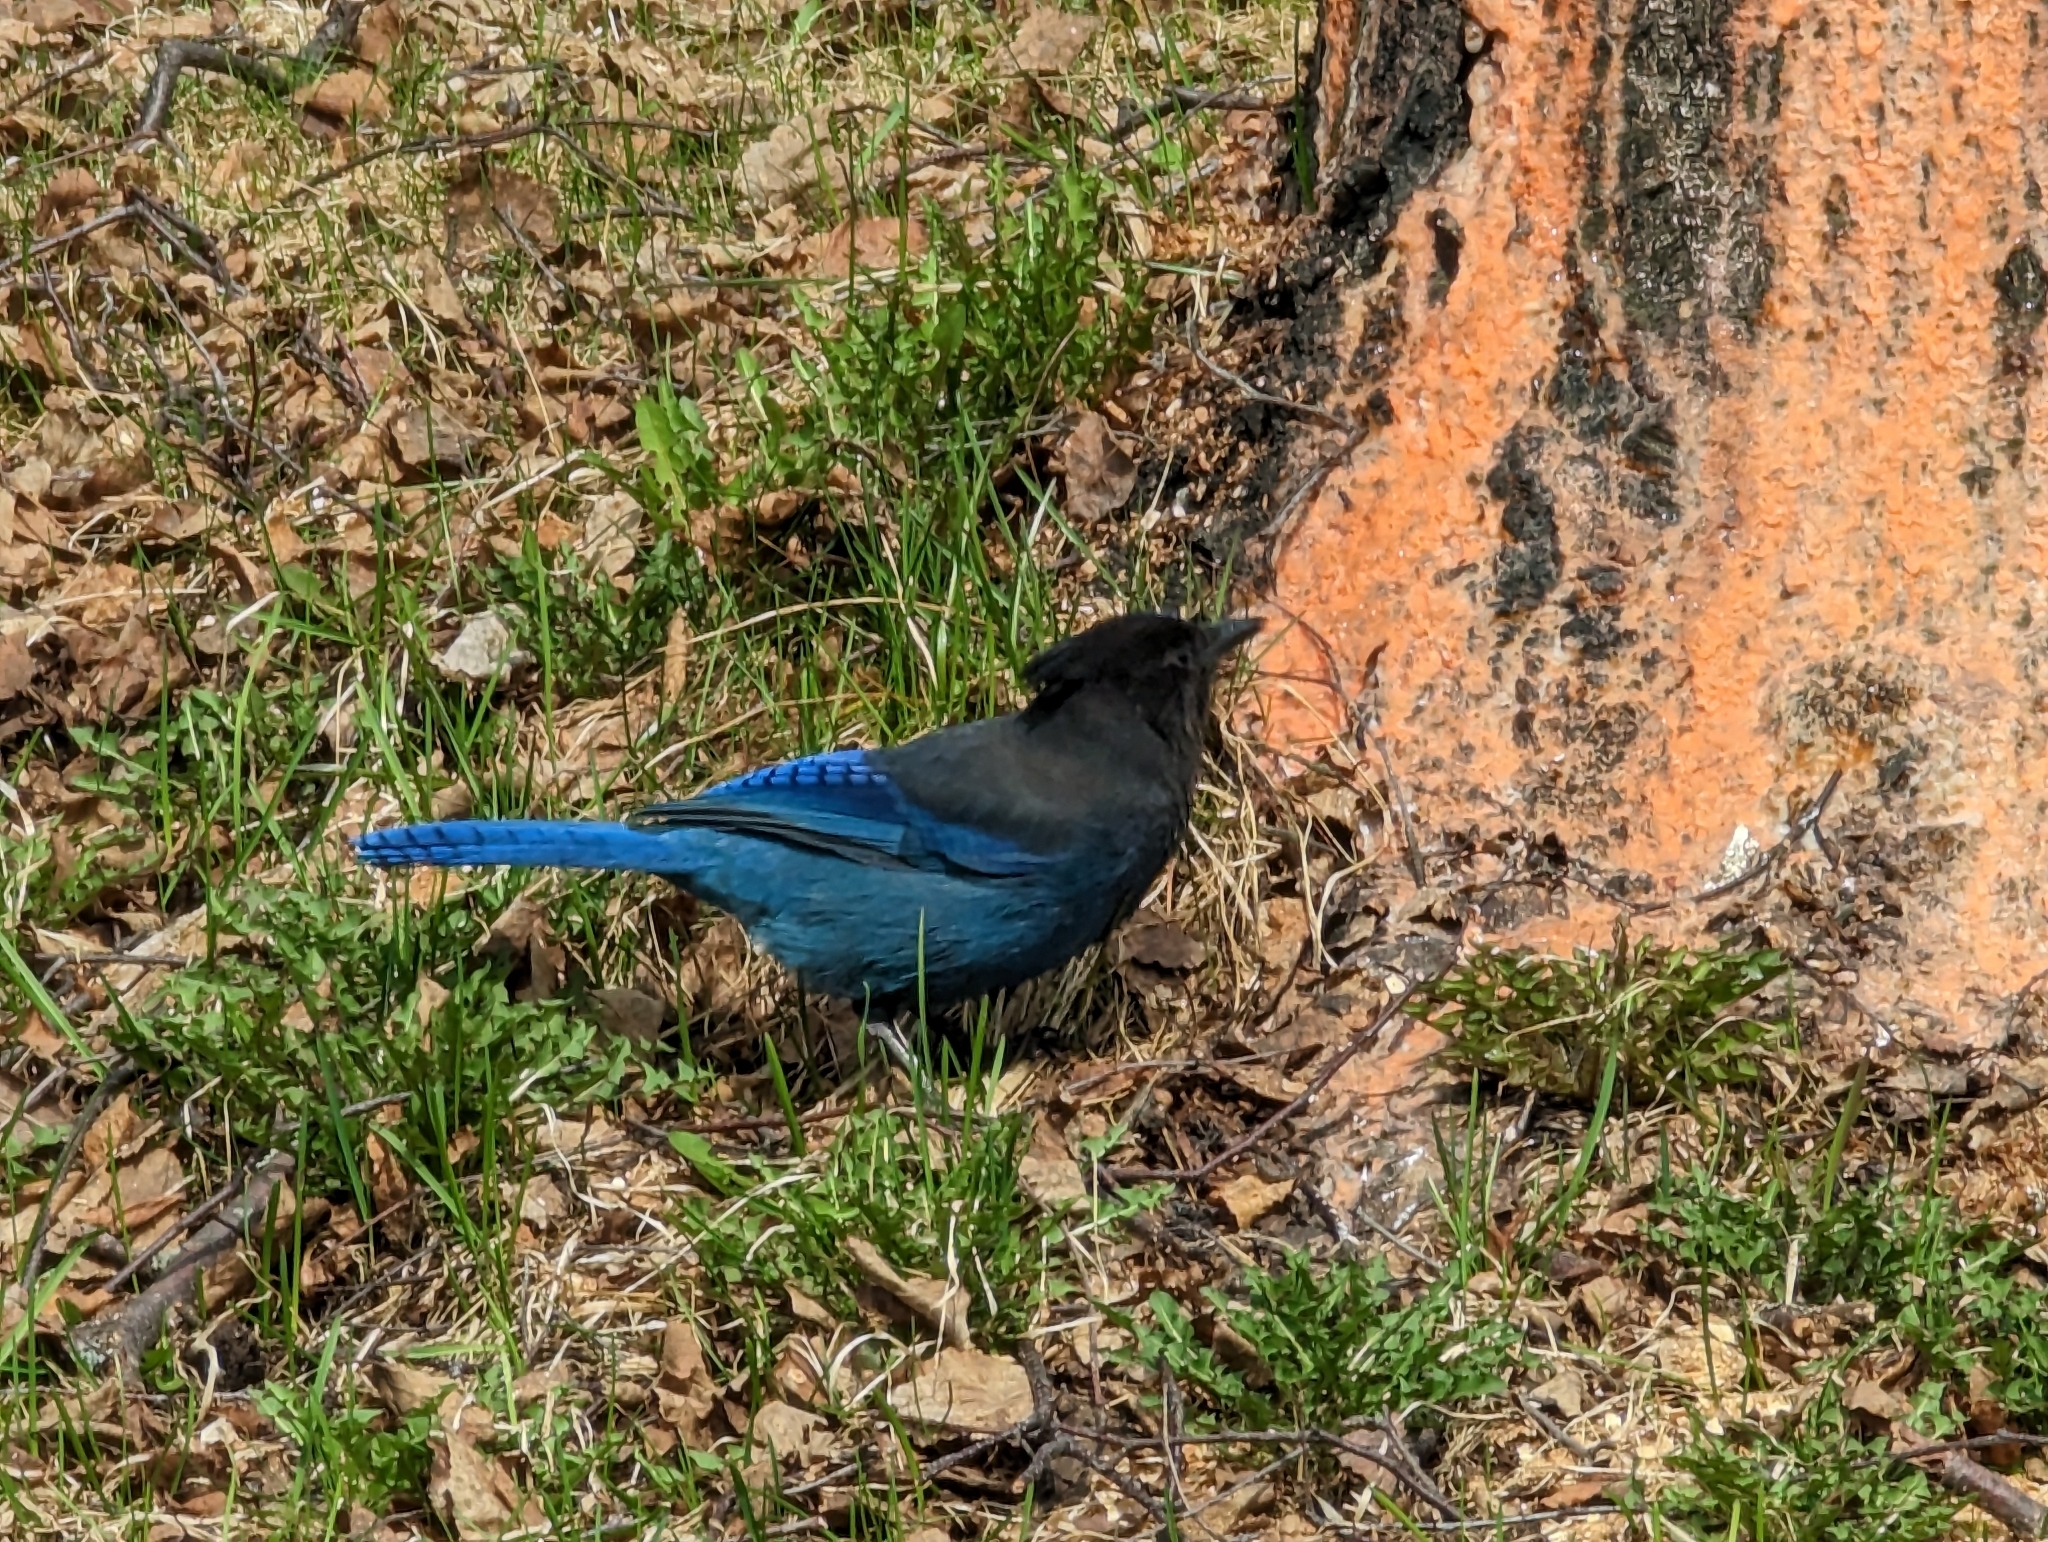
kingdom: Animalia
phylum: Chordata
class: Aves
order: Passeriformes
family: Corvidae
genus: Cyanocitta
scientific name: Cyanocitta stelleri
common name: Steller's jay
